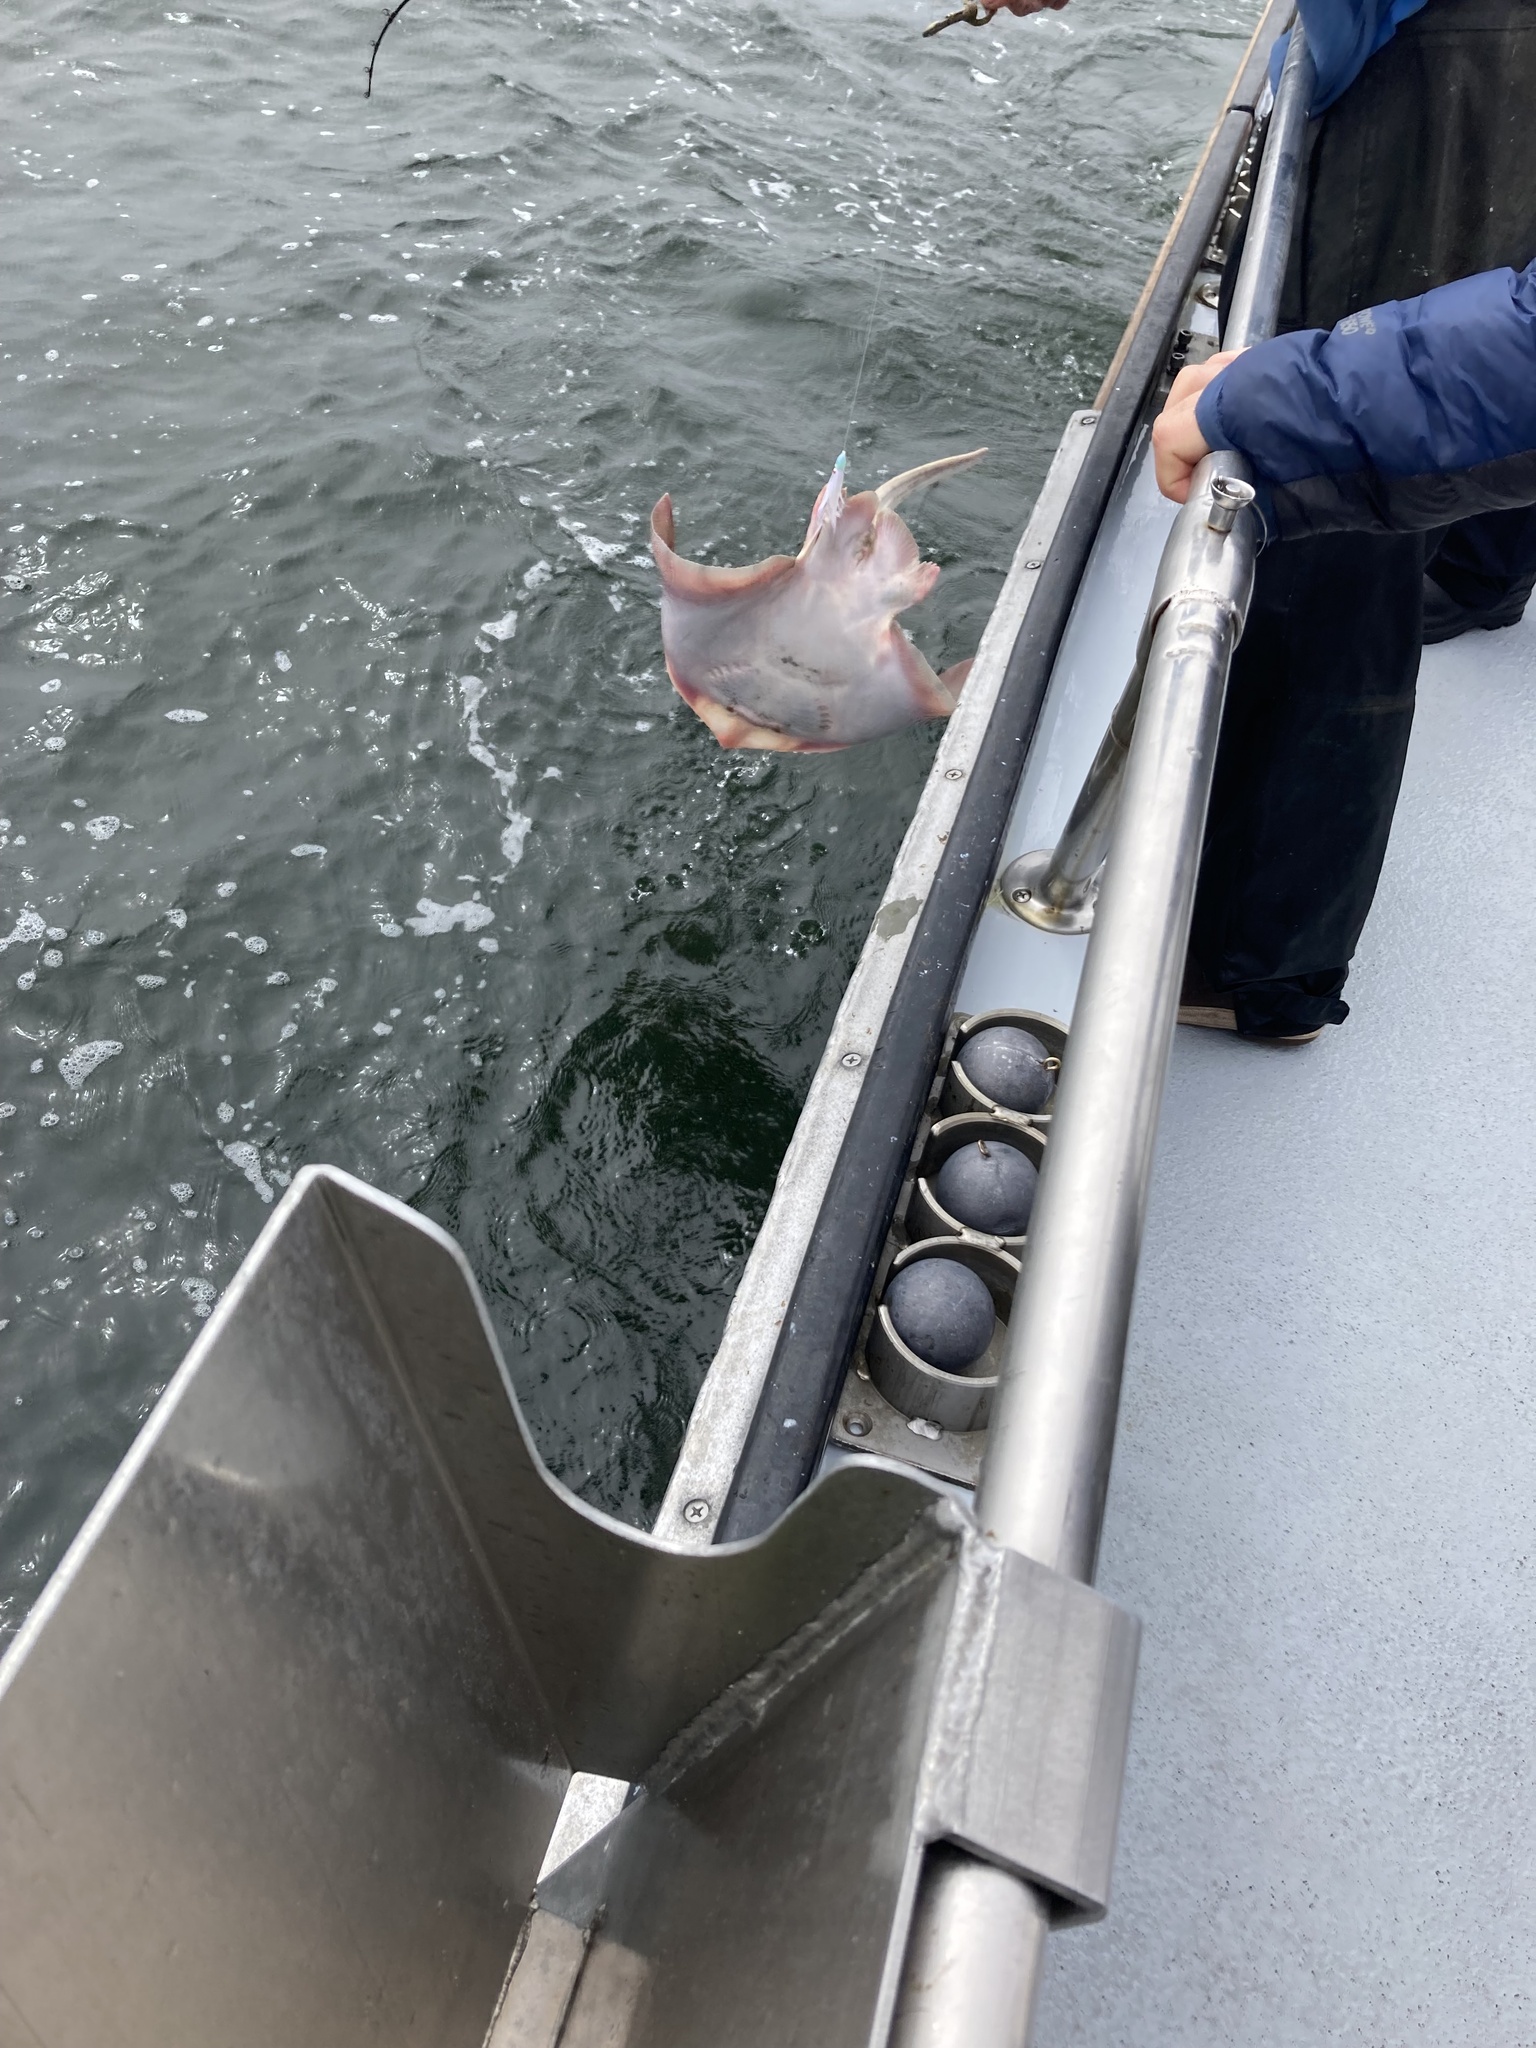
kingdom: Animalia
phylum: Chordata
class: Elasmobranchii
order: Rajiformes
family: Rajidae
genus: Beringraja
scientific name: Beringraja binoculata
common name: Big skate
